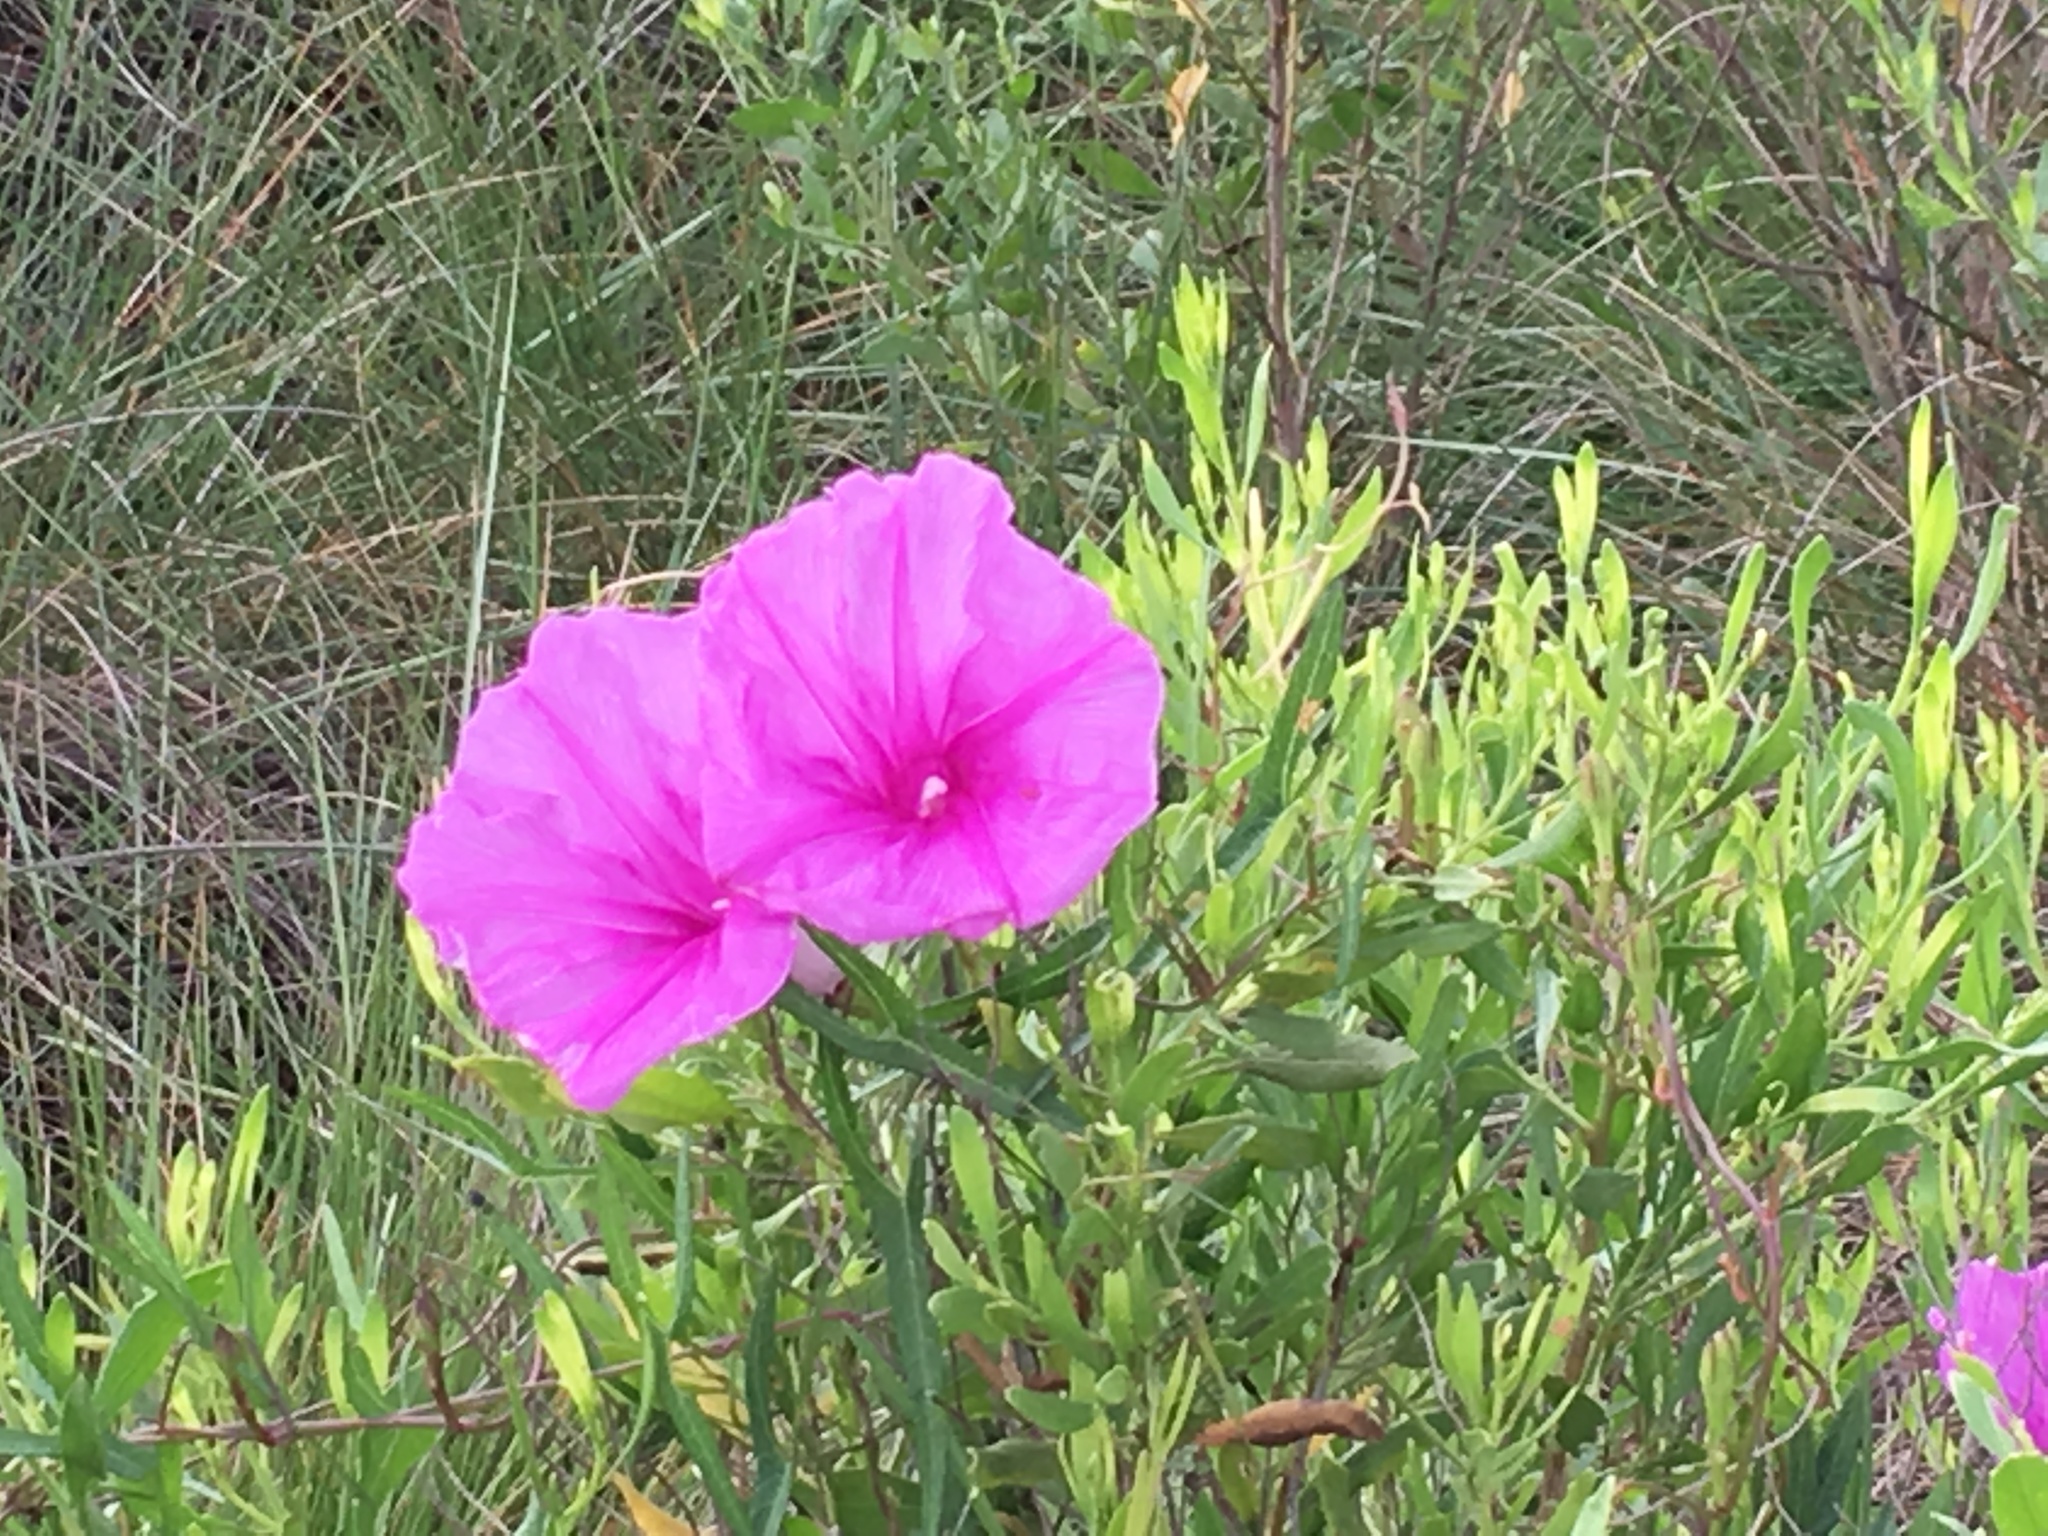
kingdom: Plantae
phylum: Tracheophyta
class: Magnoliopsida
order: Solanales
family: Convolvulaceae
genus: Ipomoea
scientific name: Ipomoea sagittata
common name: Saltmarsh morning glory
